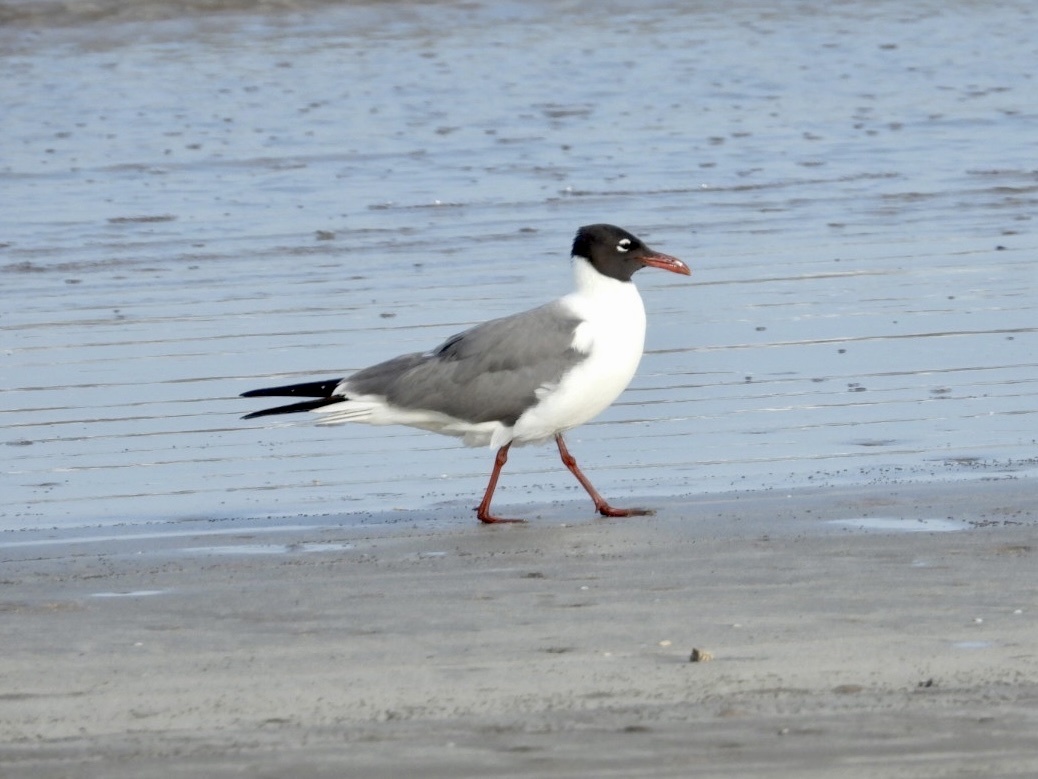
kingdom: Animalia
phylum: Chordata
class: Aves
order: Charadriiformes
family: Laridae
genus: Leucophaeus
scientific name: Leucophaeus atricilla
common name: Laughing gull
